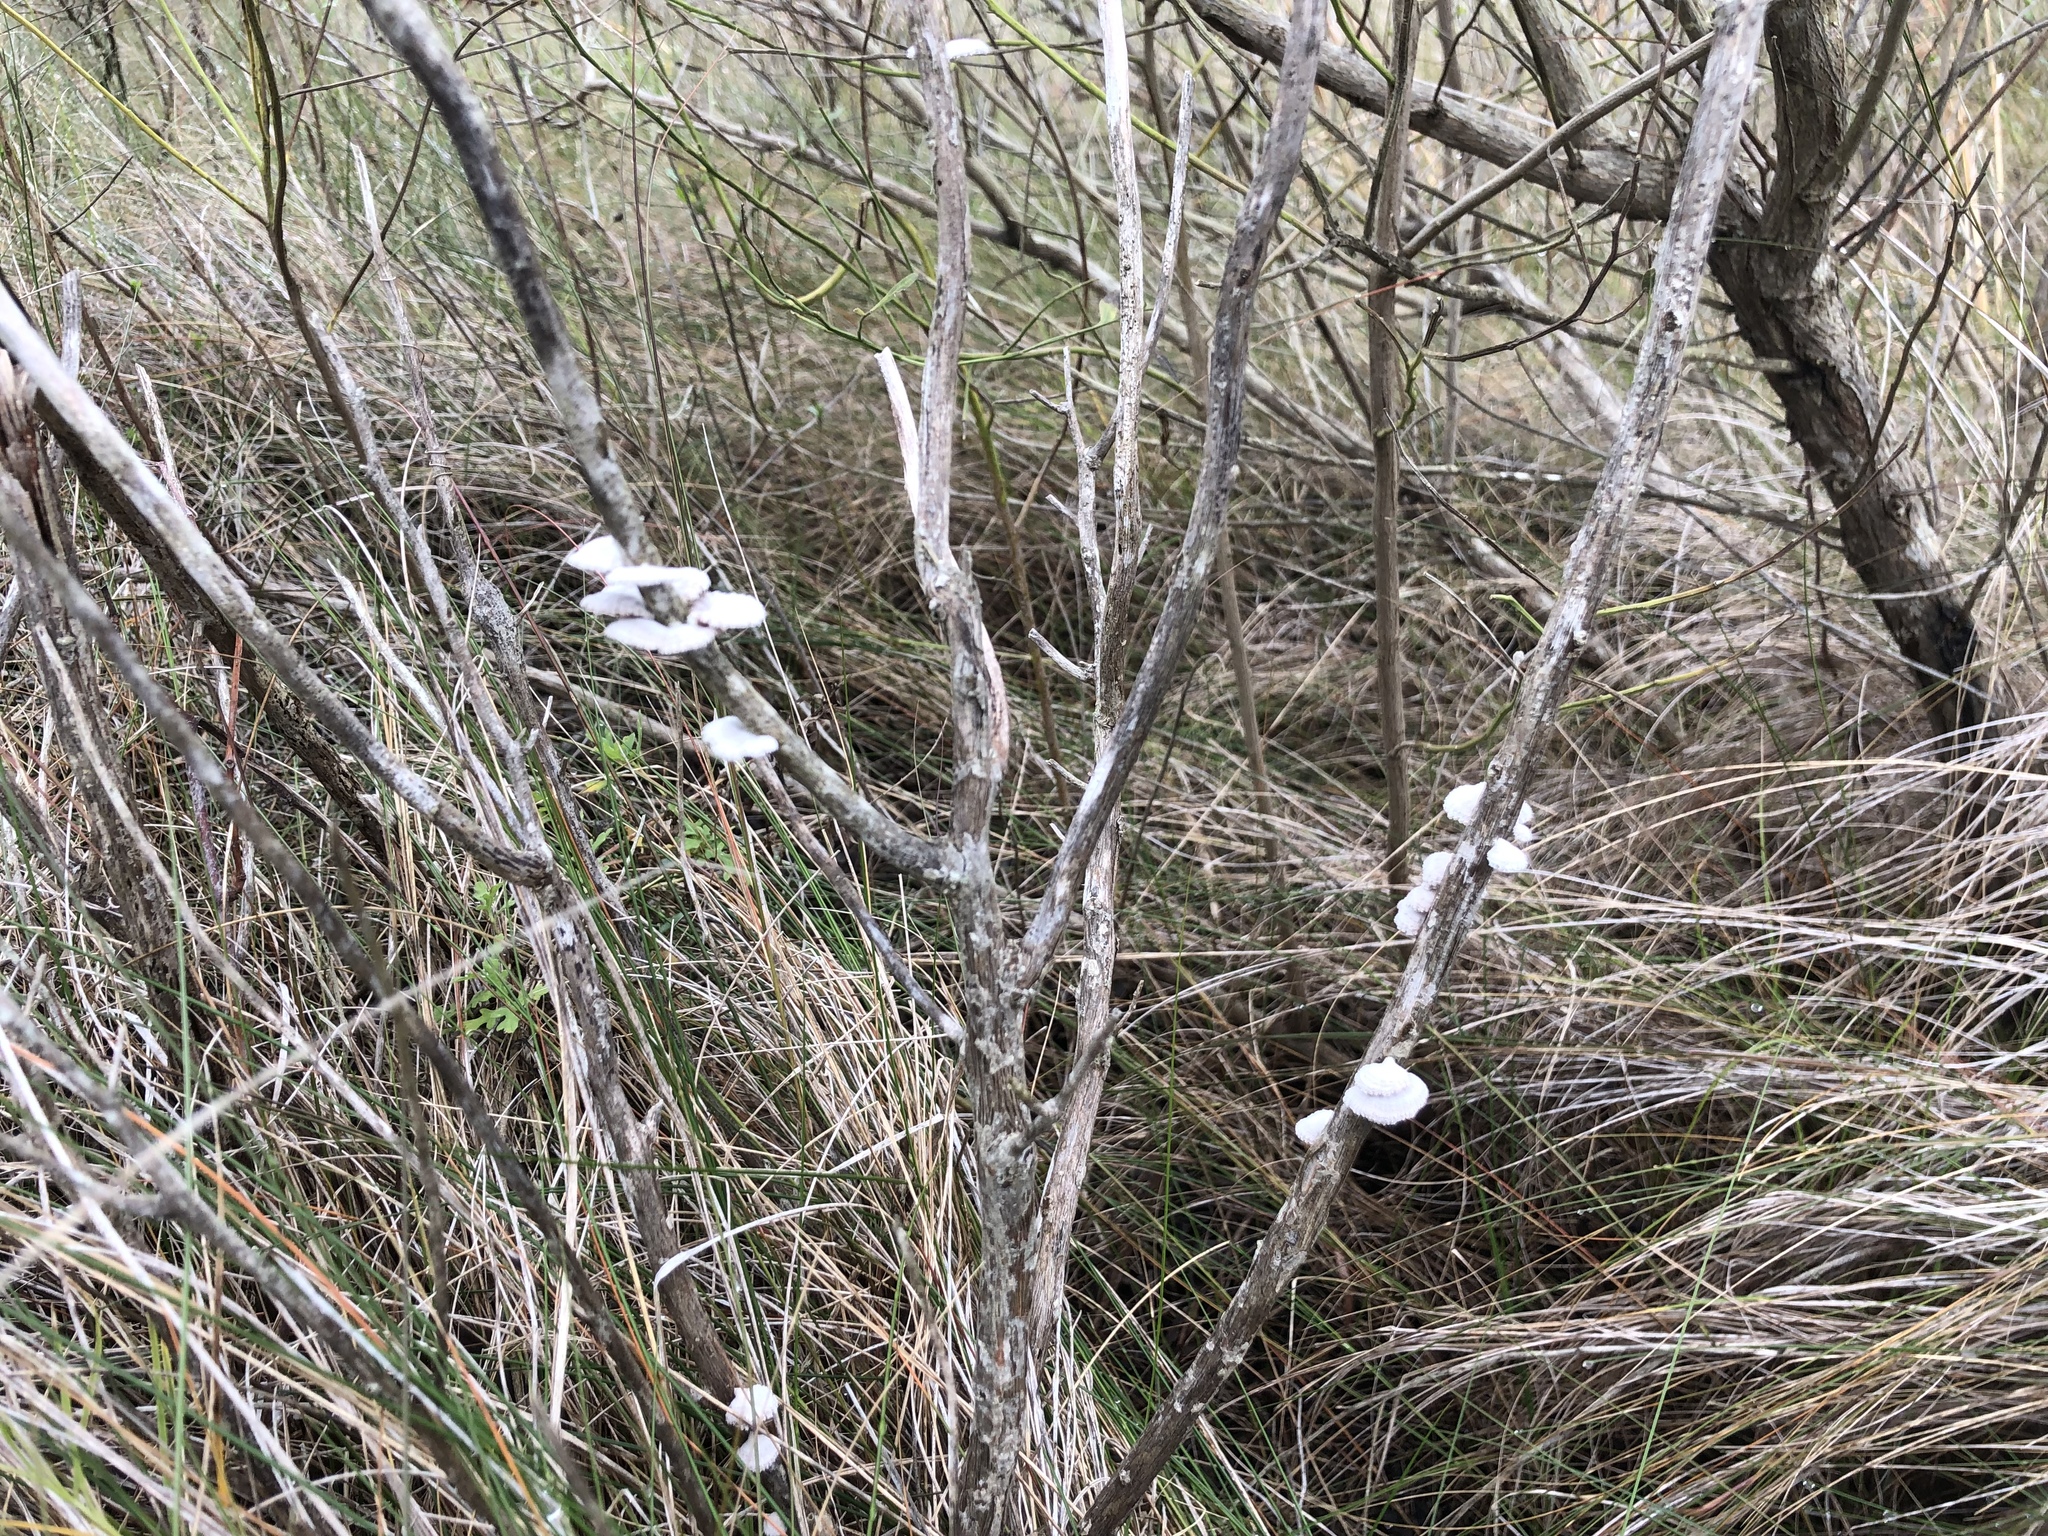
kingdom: Fungi
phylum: Basidiomycota
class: Agaricomycetes
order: Agaricales
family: Schizophyllaceae
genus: Schizophyllum
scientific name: Schizophyllum commune
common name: Common porecrust
